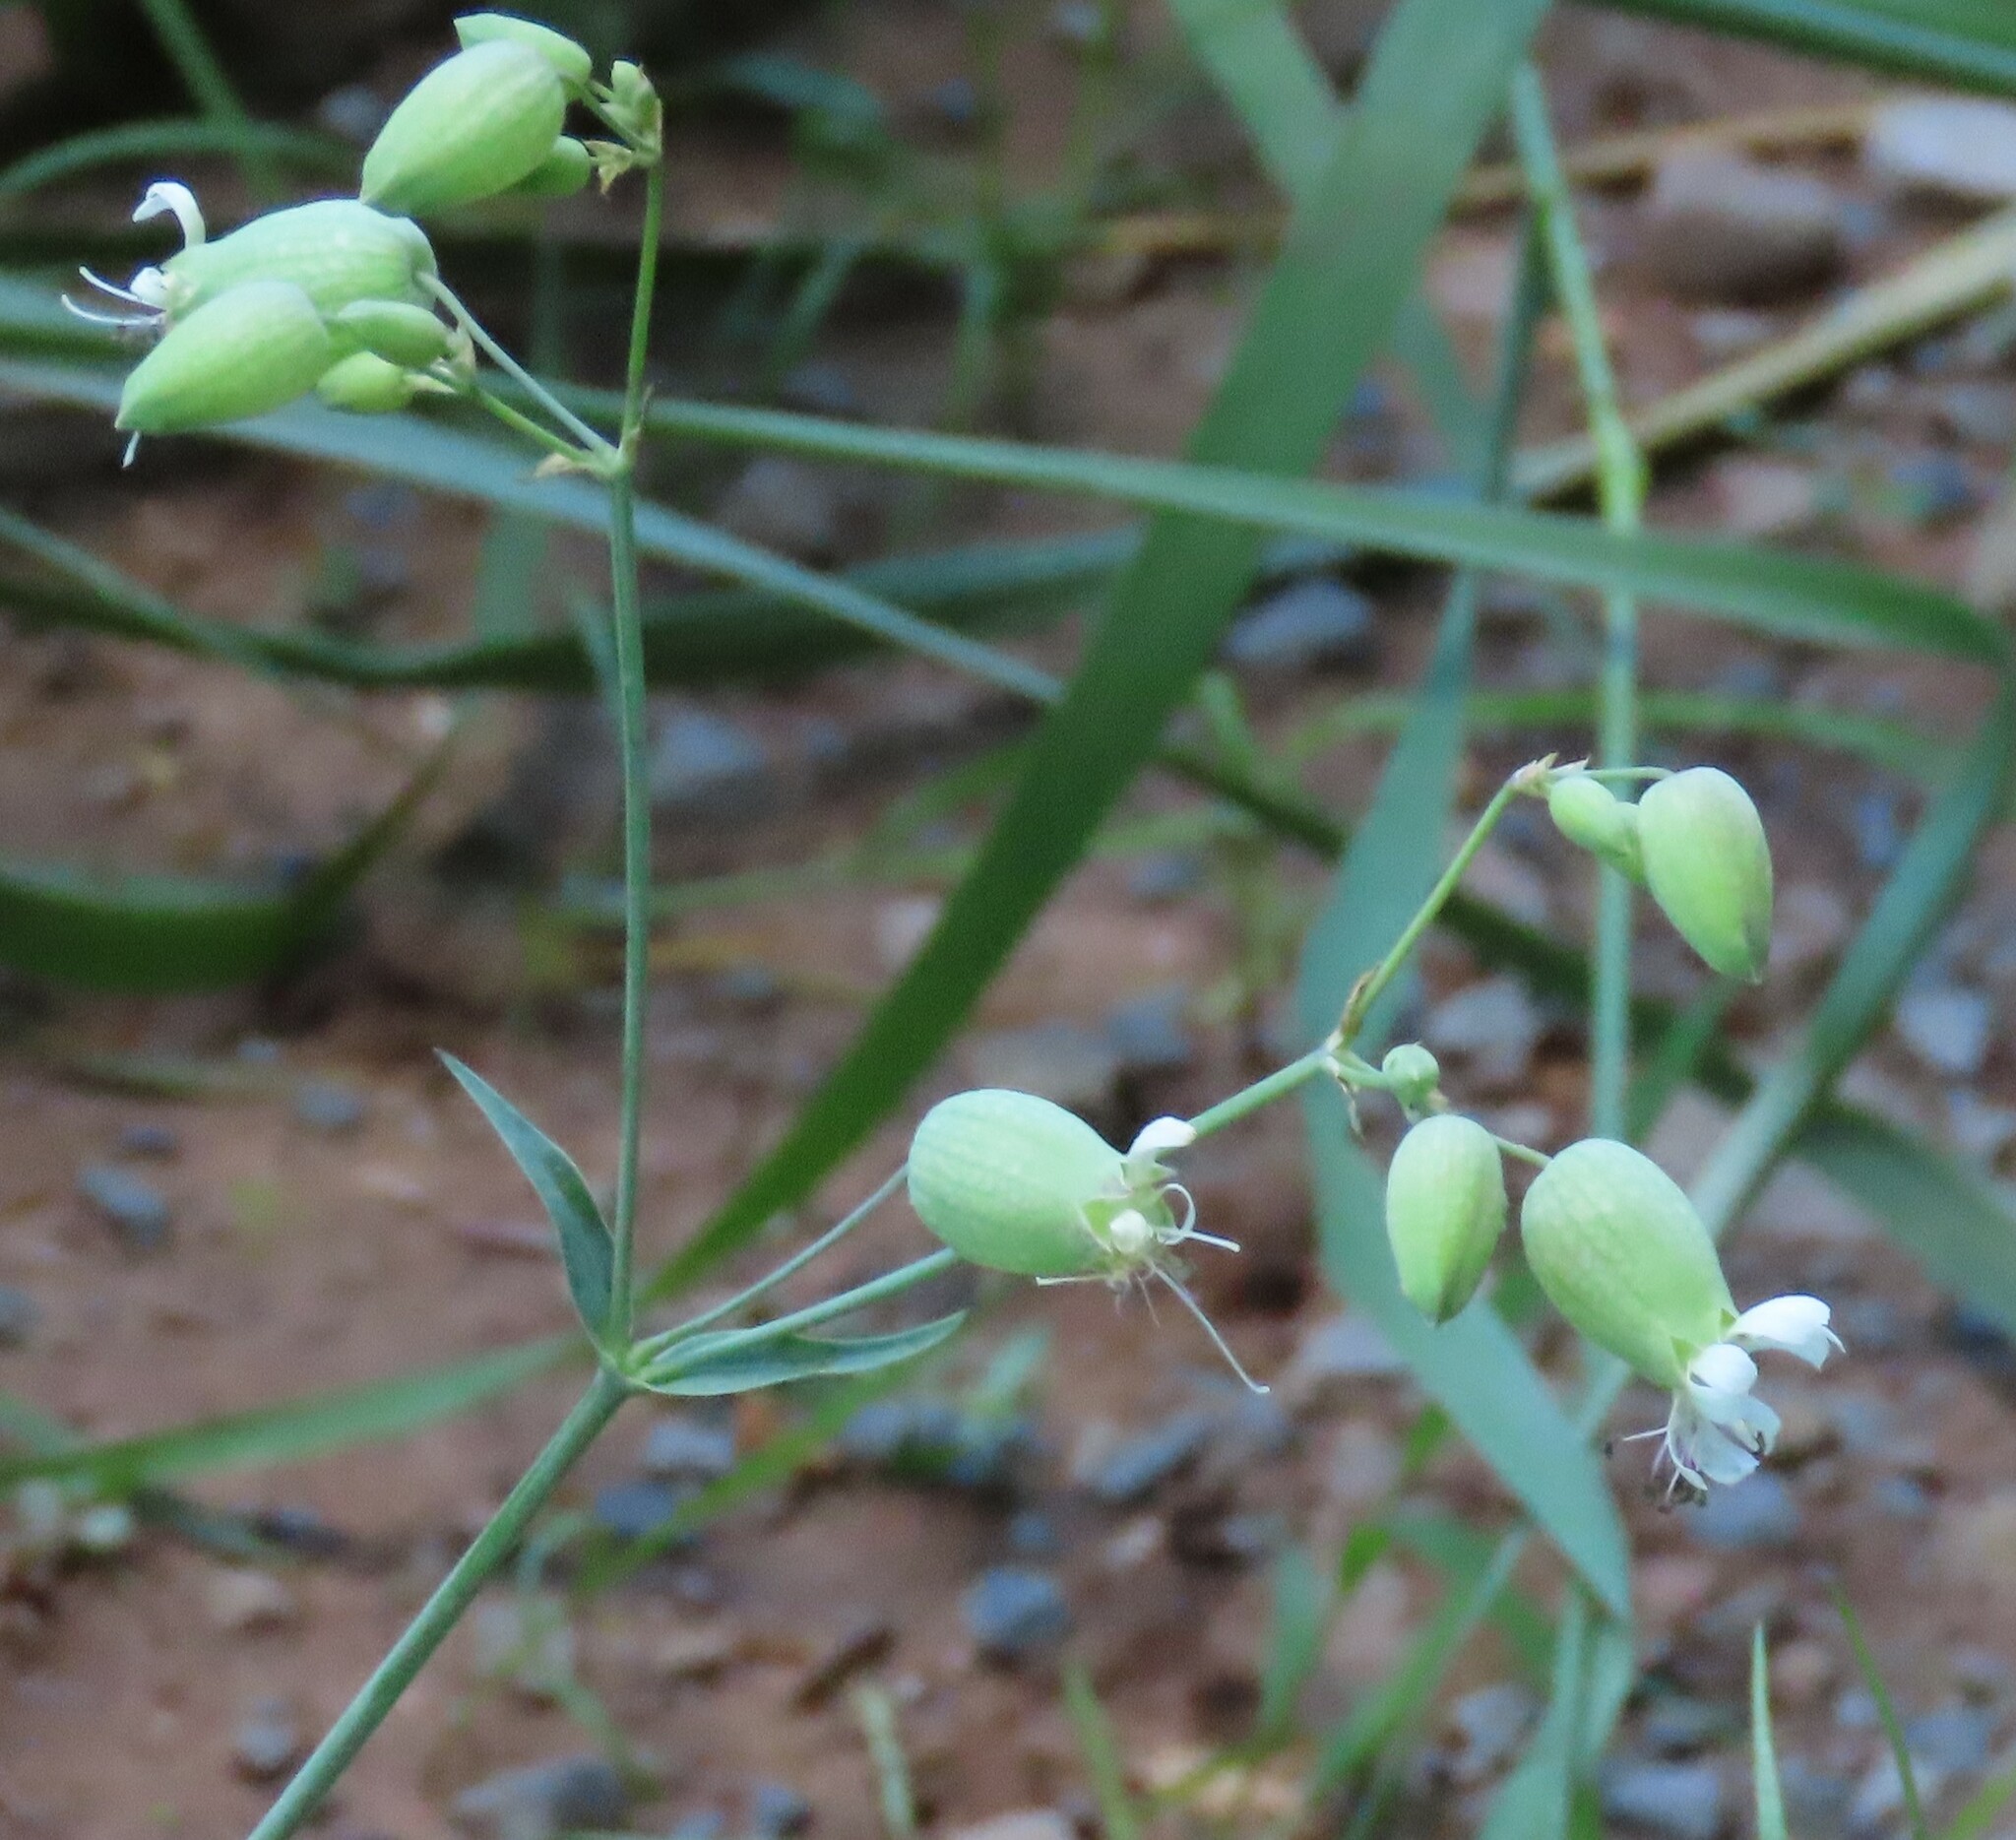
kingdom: Plantae
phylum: Tracheophyta
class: Magnoliopsida
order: Caryophyllales
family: Caryophyllaceae
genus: Silene
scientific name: Silene vulgaris
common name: Bladder campion
